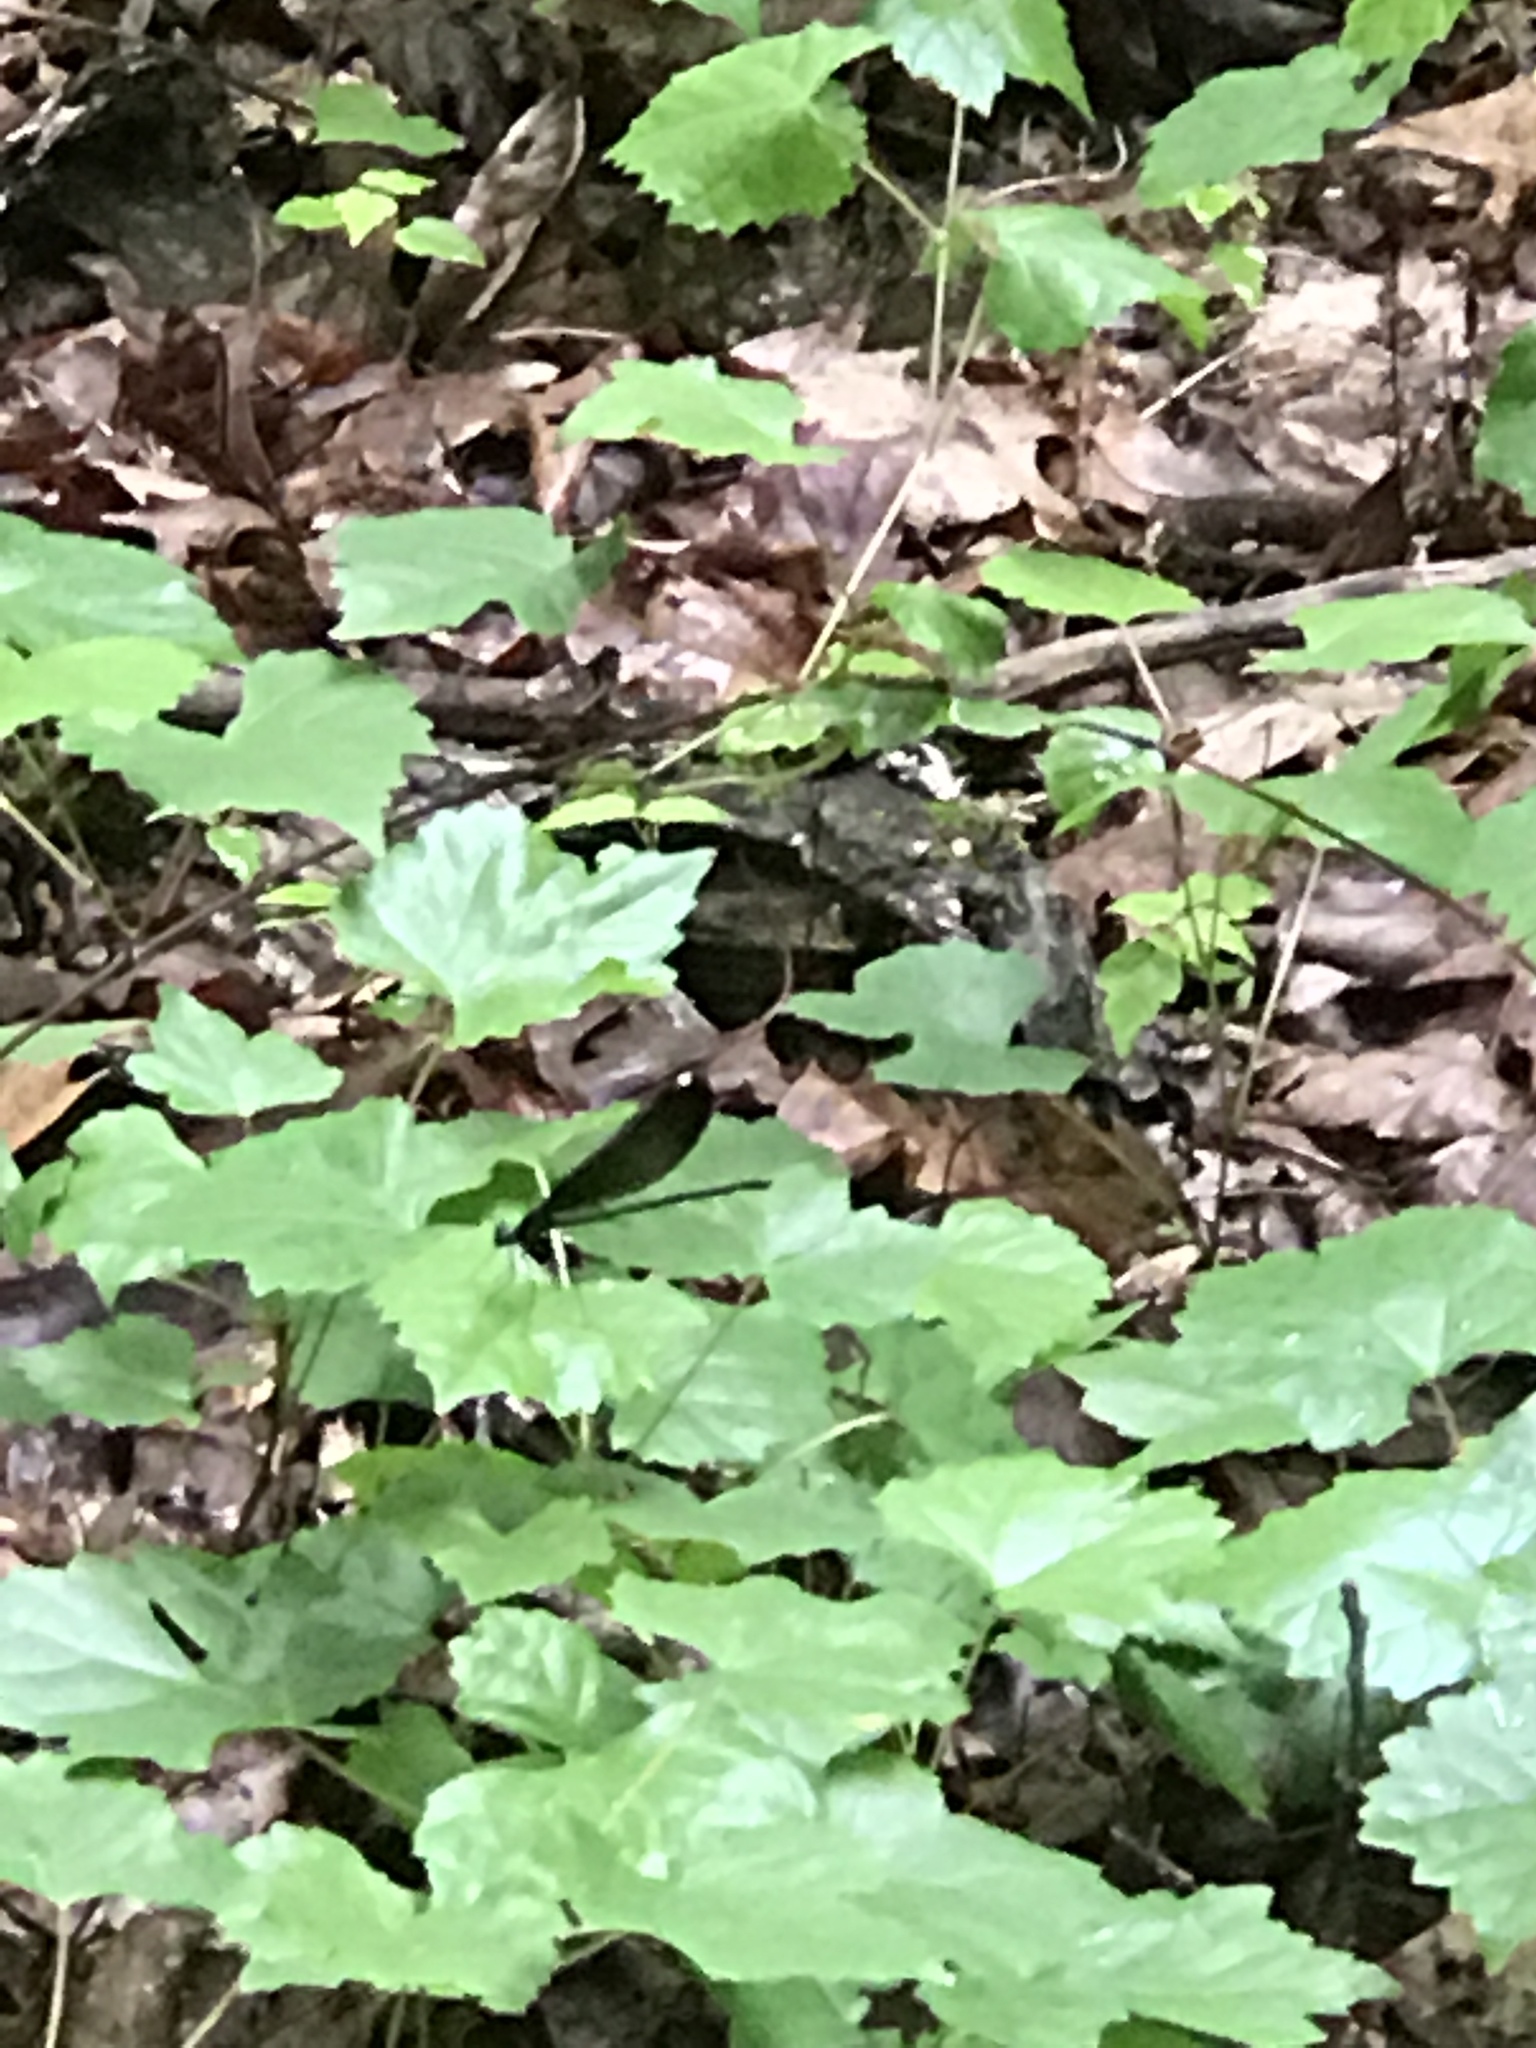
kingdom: Animalia
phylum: Arthropoda
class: Insecta
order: Odonata
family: Calopterygidae
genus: Calopteryx
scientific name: Calopteryx maculata
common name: Ebony jewelwing
